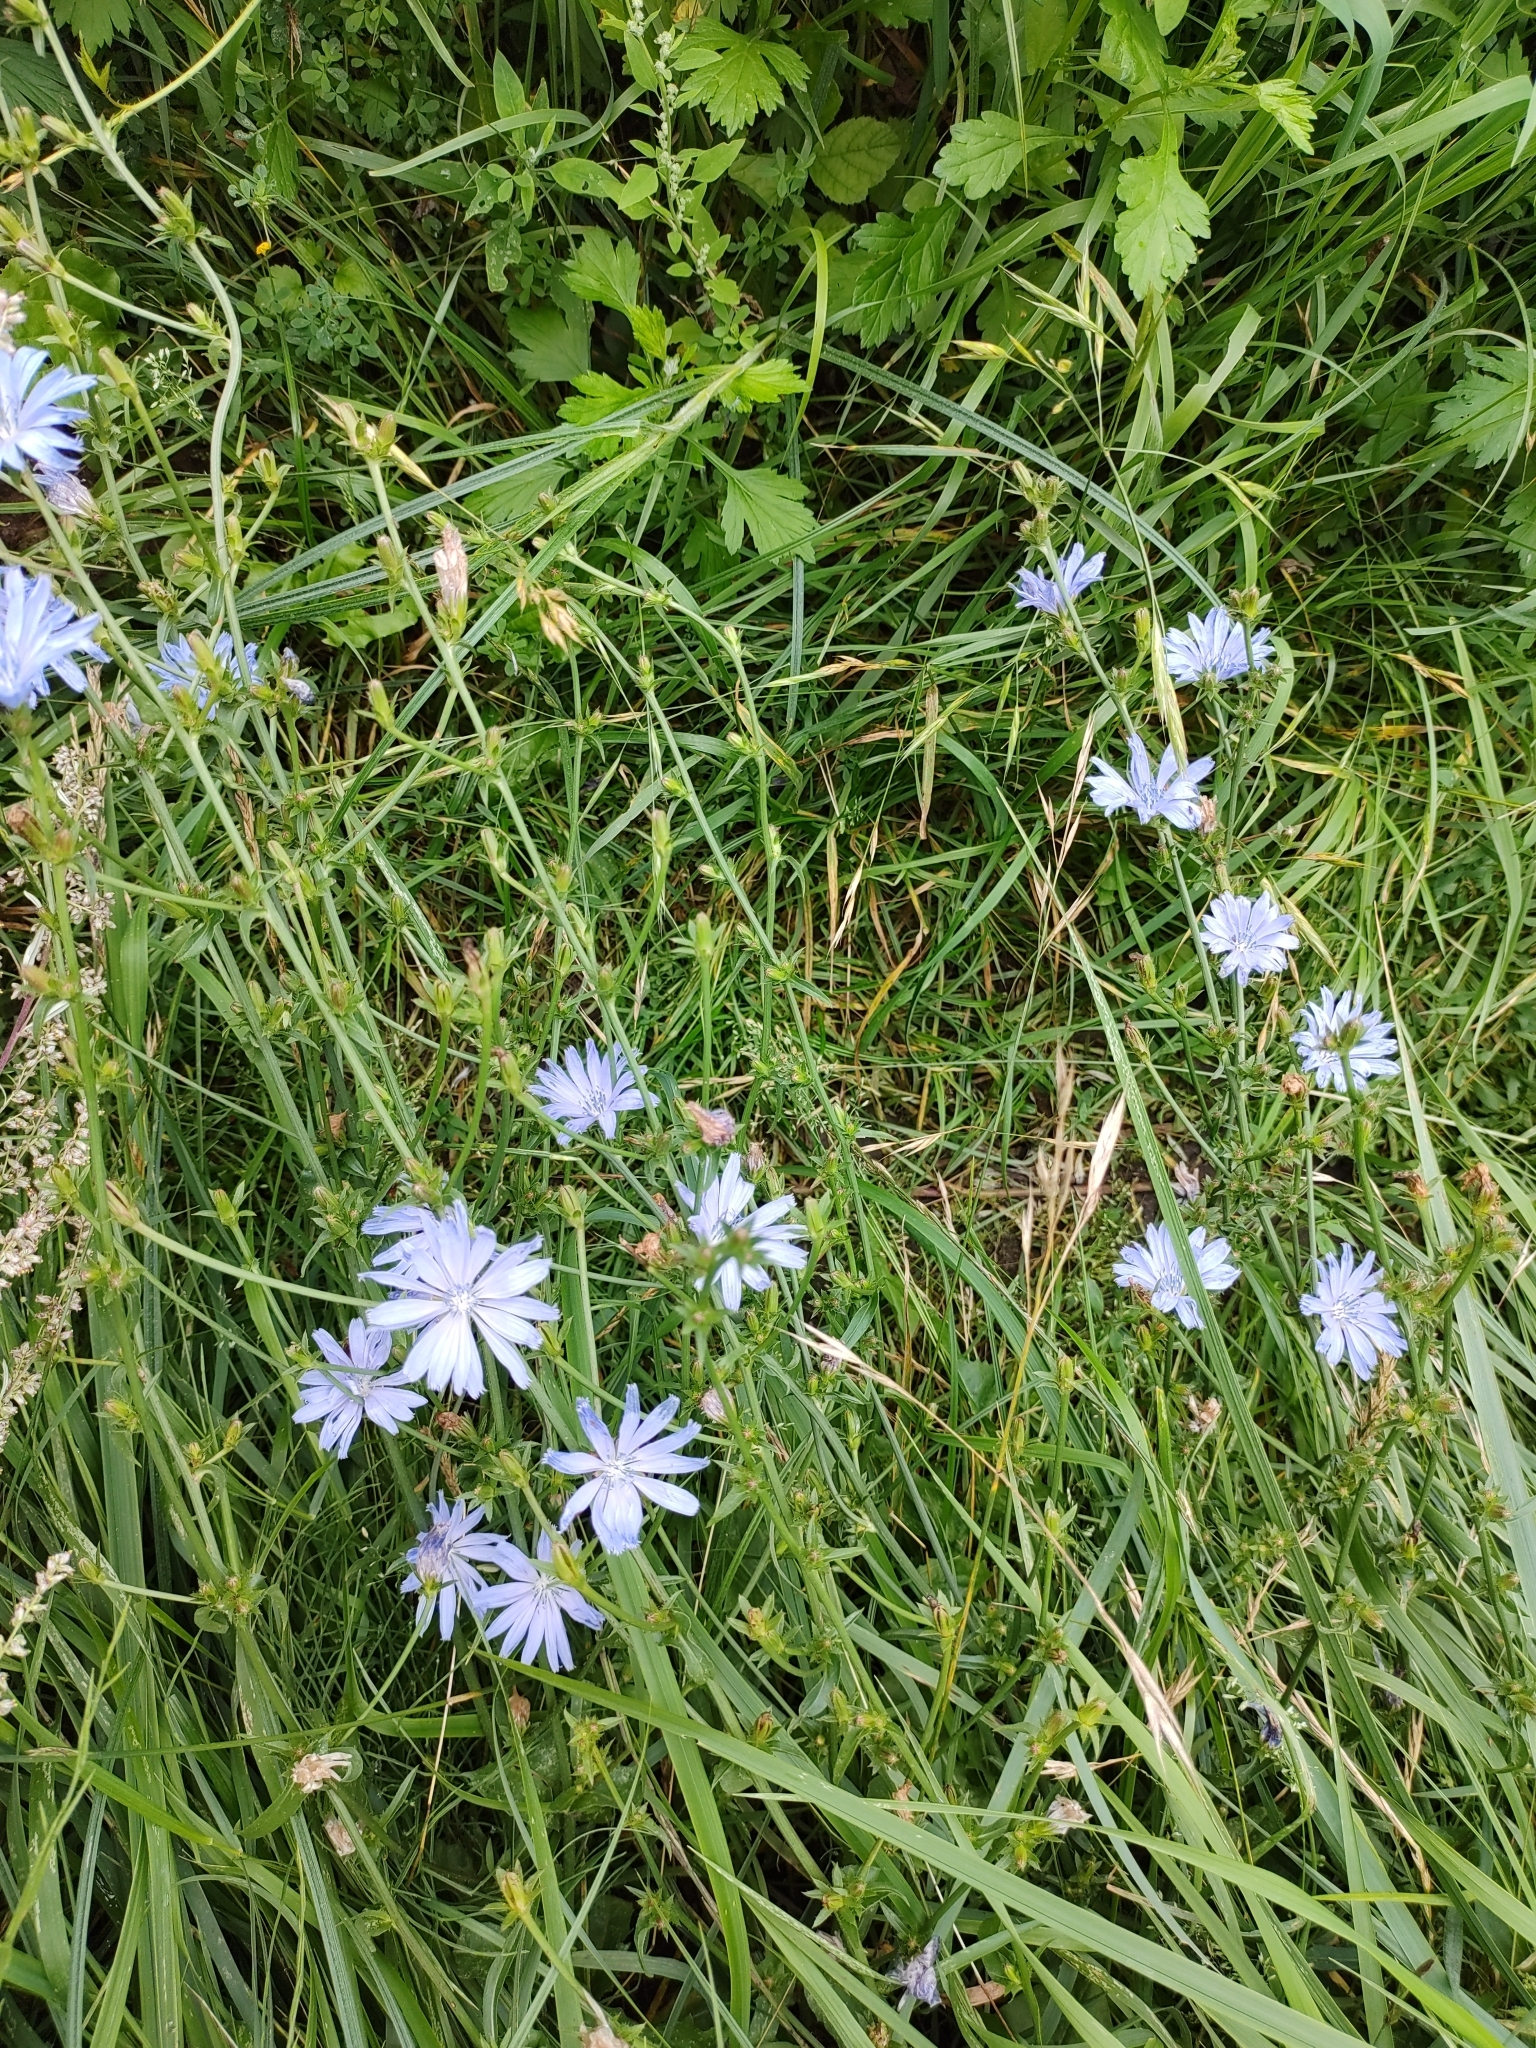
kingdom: Plantae
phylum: Tracheophyta
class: Magnoliopsida
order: Asterales
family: Asteraceae
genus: Cichorium
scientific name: Cichorium intybus
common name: Chicory
